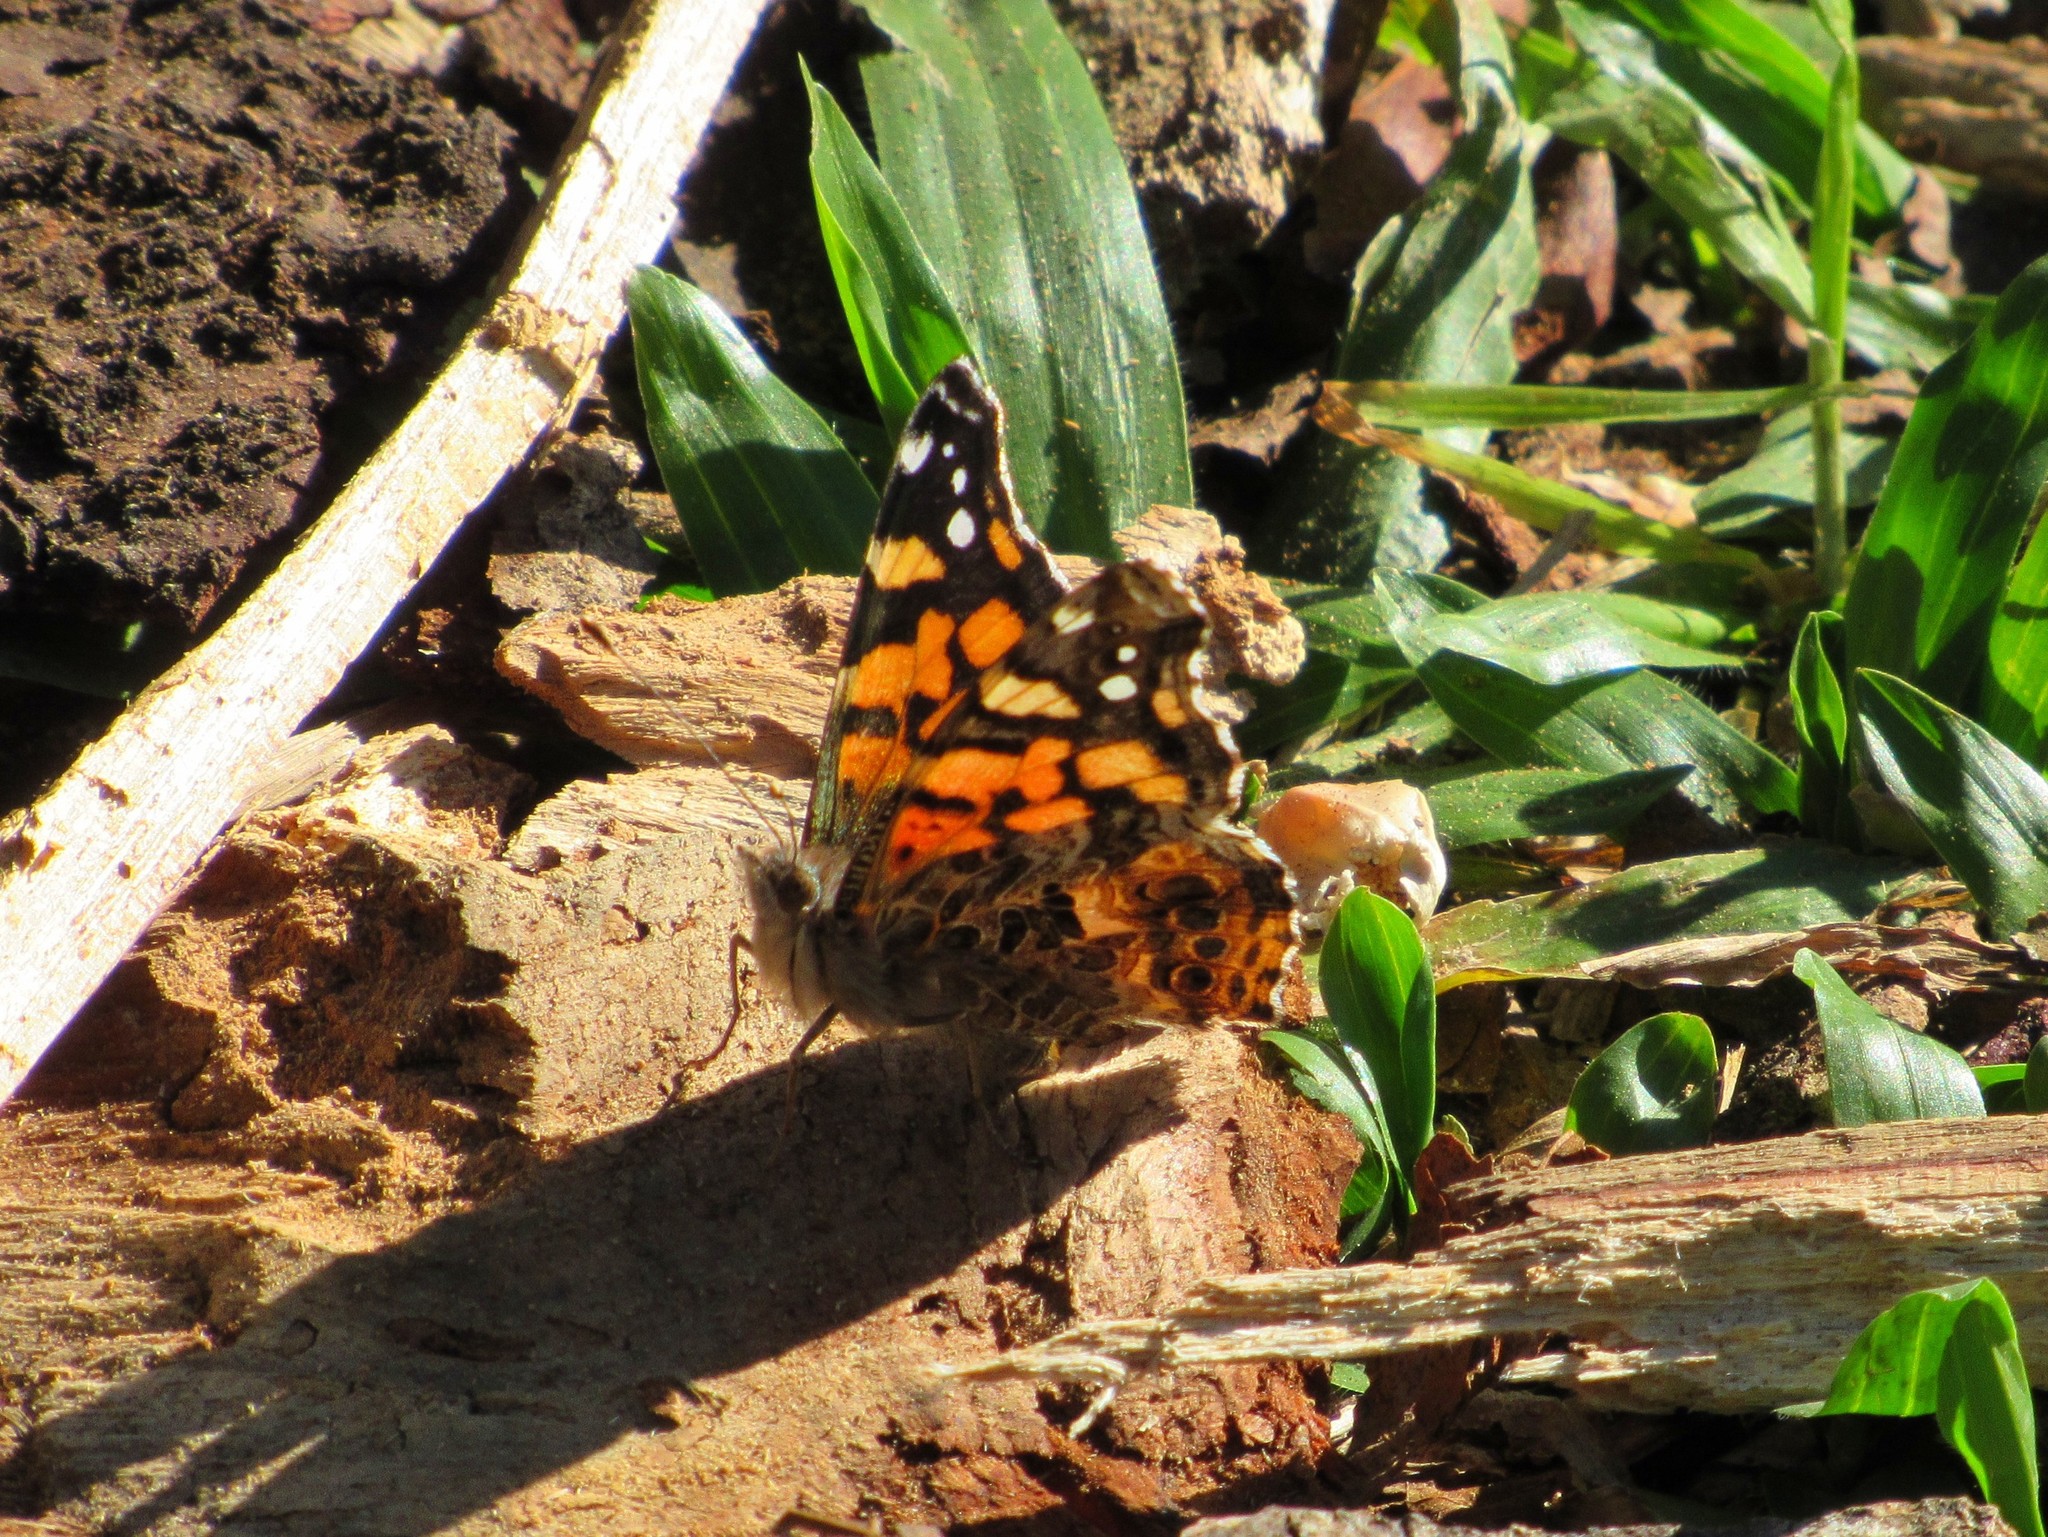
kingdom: Animalia
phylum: Arthropoda
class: Insecta
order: Lepidoptera
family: Nymphalidae
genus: Vanessa
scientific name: Vanessa carye
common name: Subtropical lady
